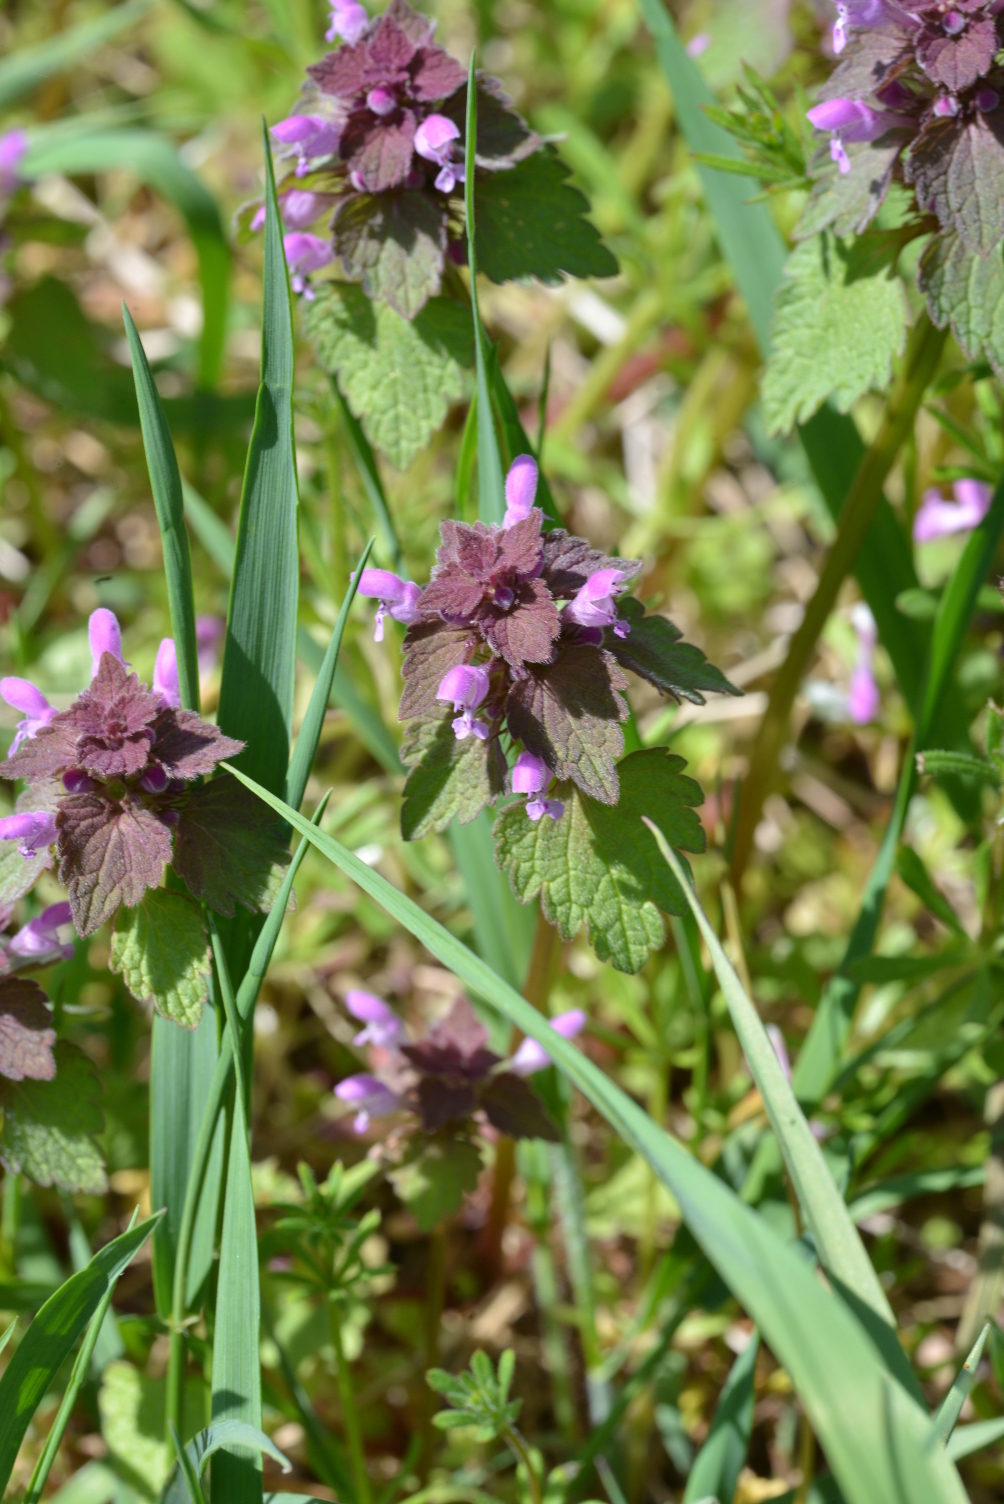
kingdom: Plantae
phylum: Tracheophyta
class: Magnoliopsida
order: Lamiales
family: Lamiaceae
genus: Lamium
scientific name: Lamium purpureum
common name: Red dead-nettle
